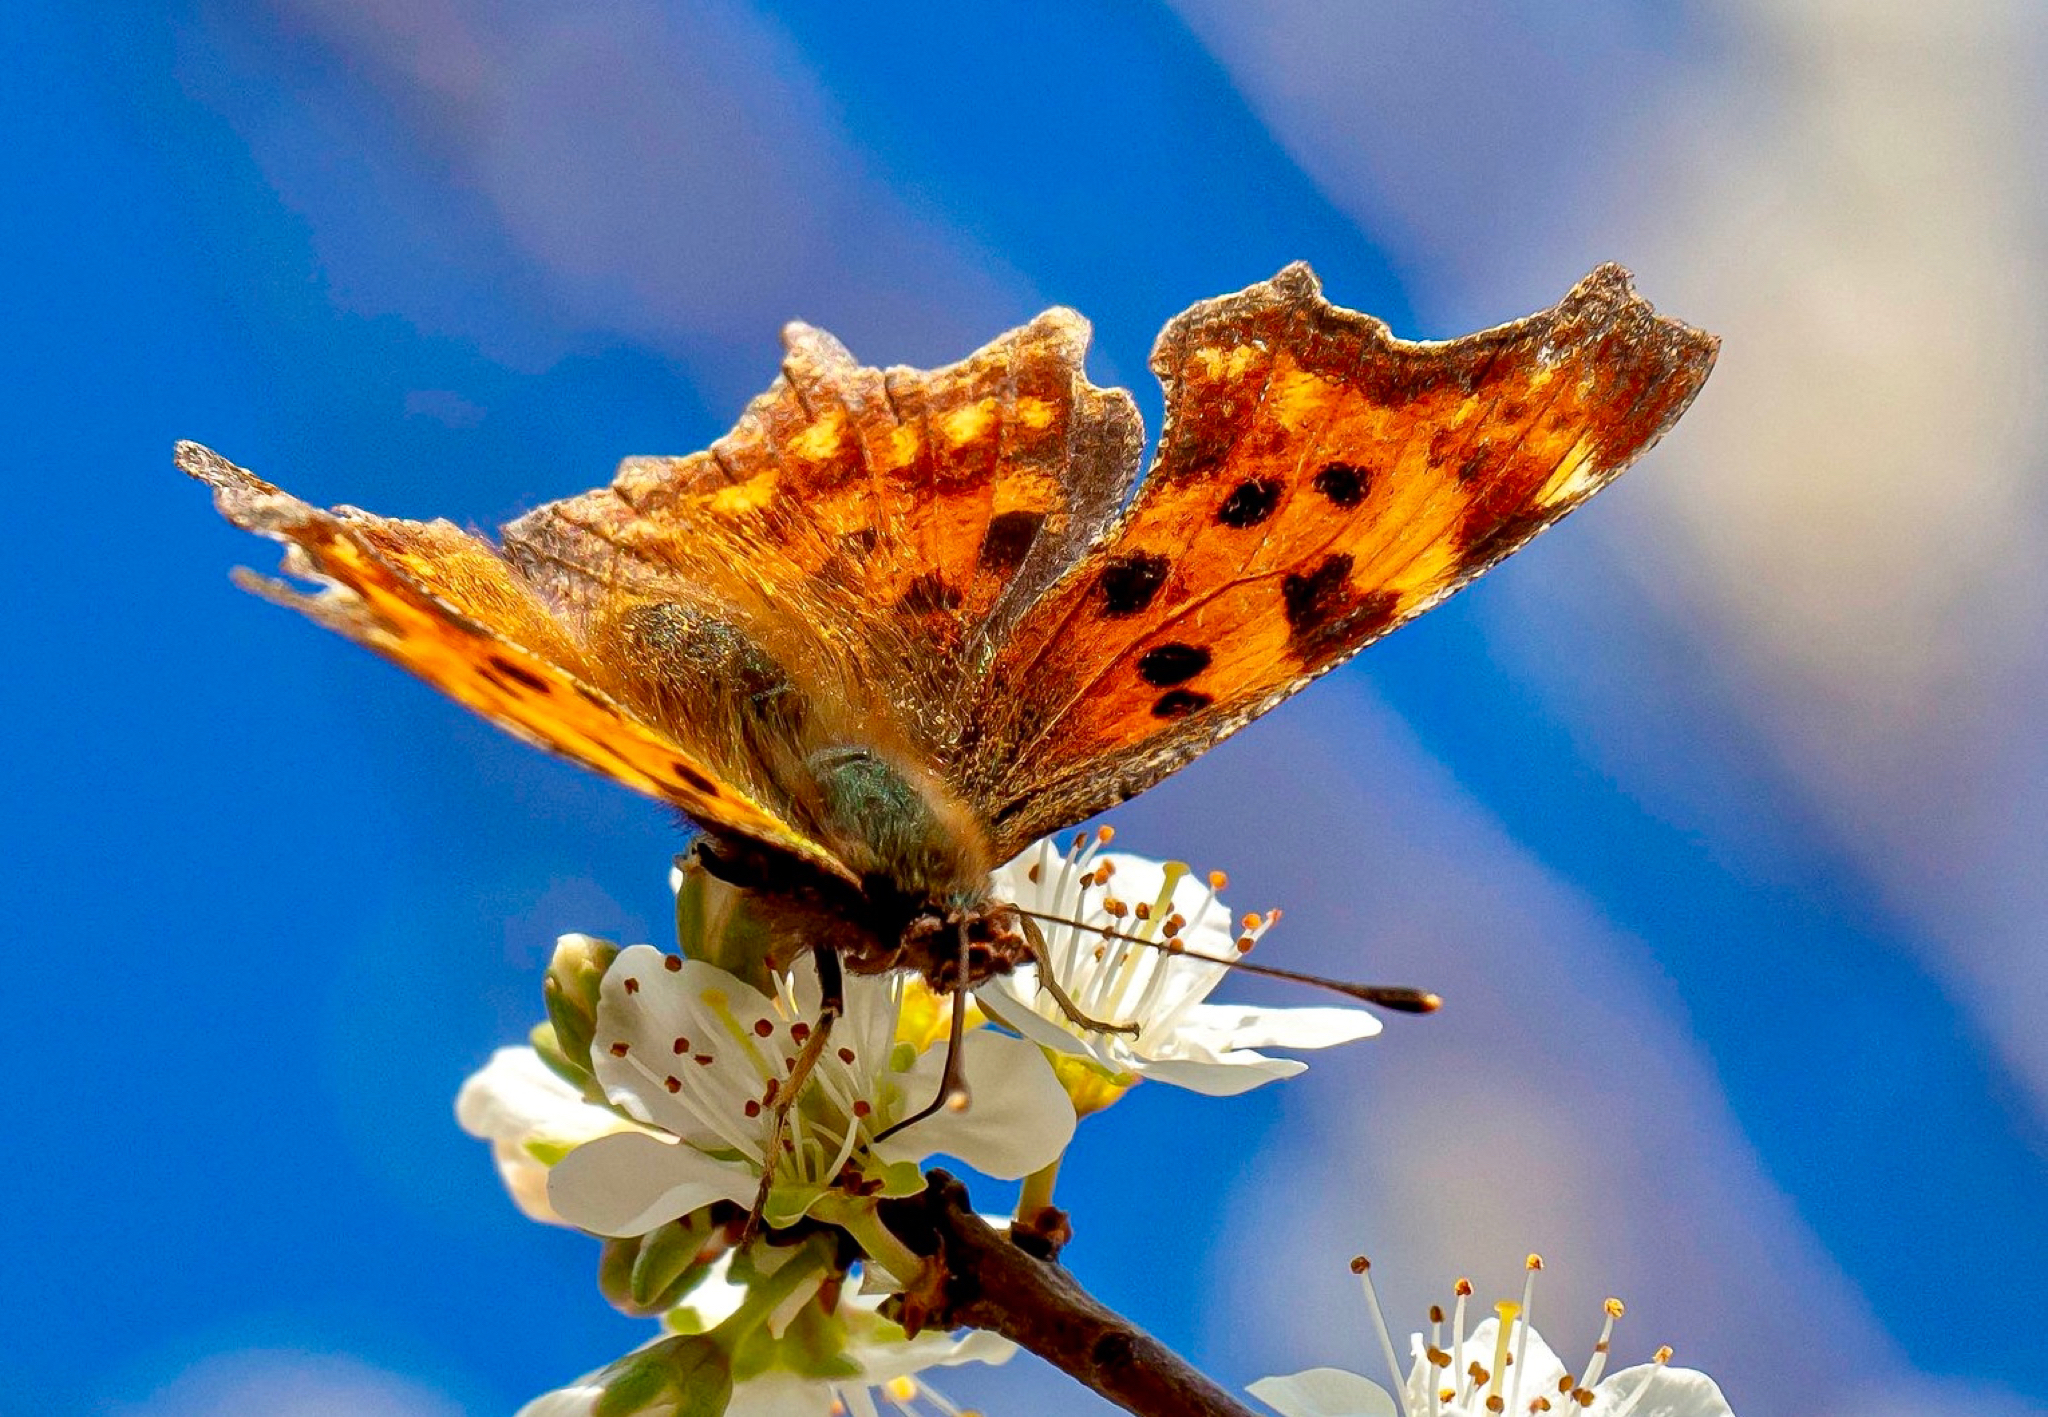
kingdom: Animalia
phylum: Arthropoda
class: Insecta
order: Lepidoptera
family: Nymphalidae
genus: Polygonia
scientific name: Polygonia c-album
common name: Comma
